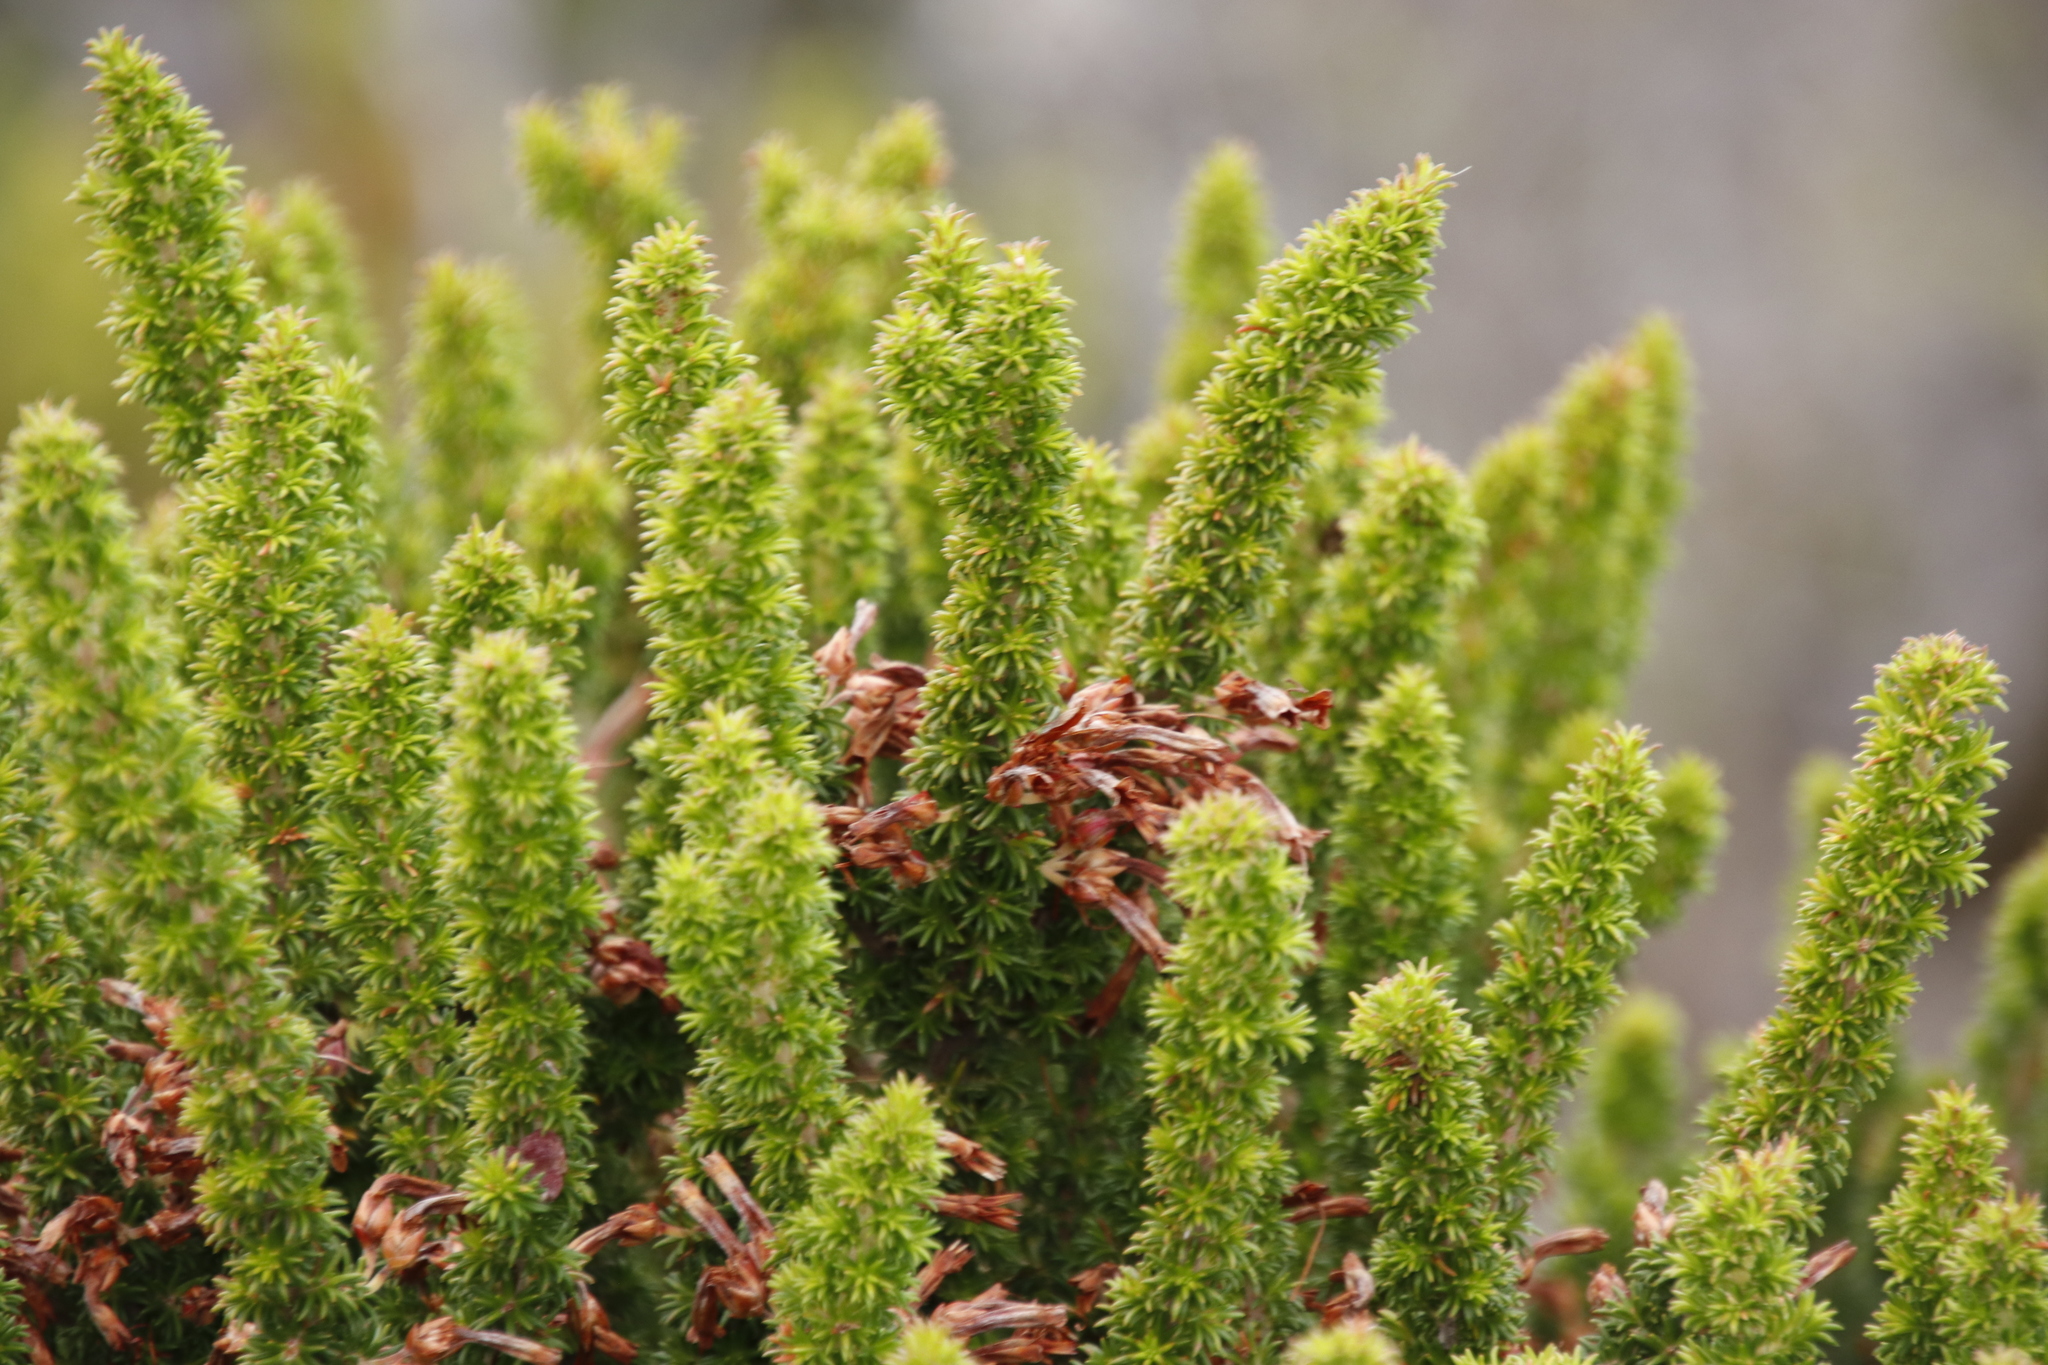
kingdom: Plantae
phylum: Tracheophyta
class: Magnoliopsida
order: Ericales
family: Ericaceae
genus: Erica
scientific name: Erica coccinea
